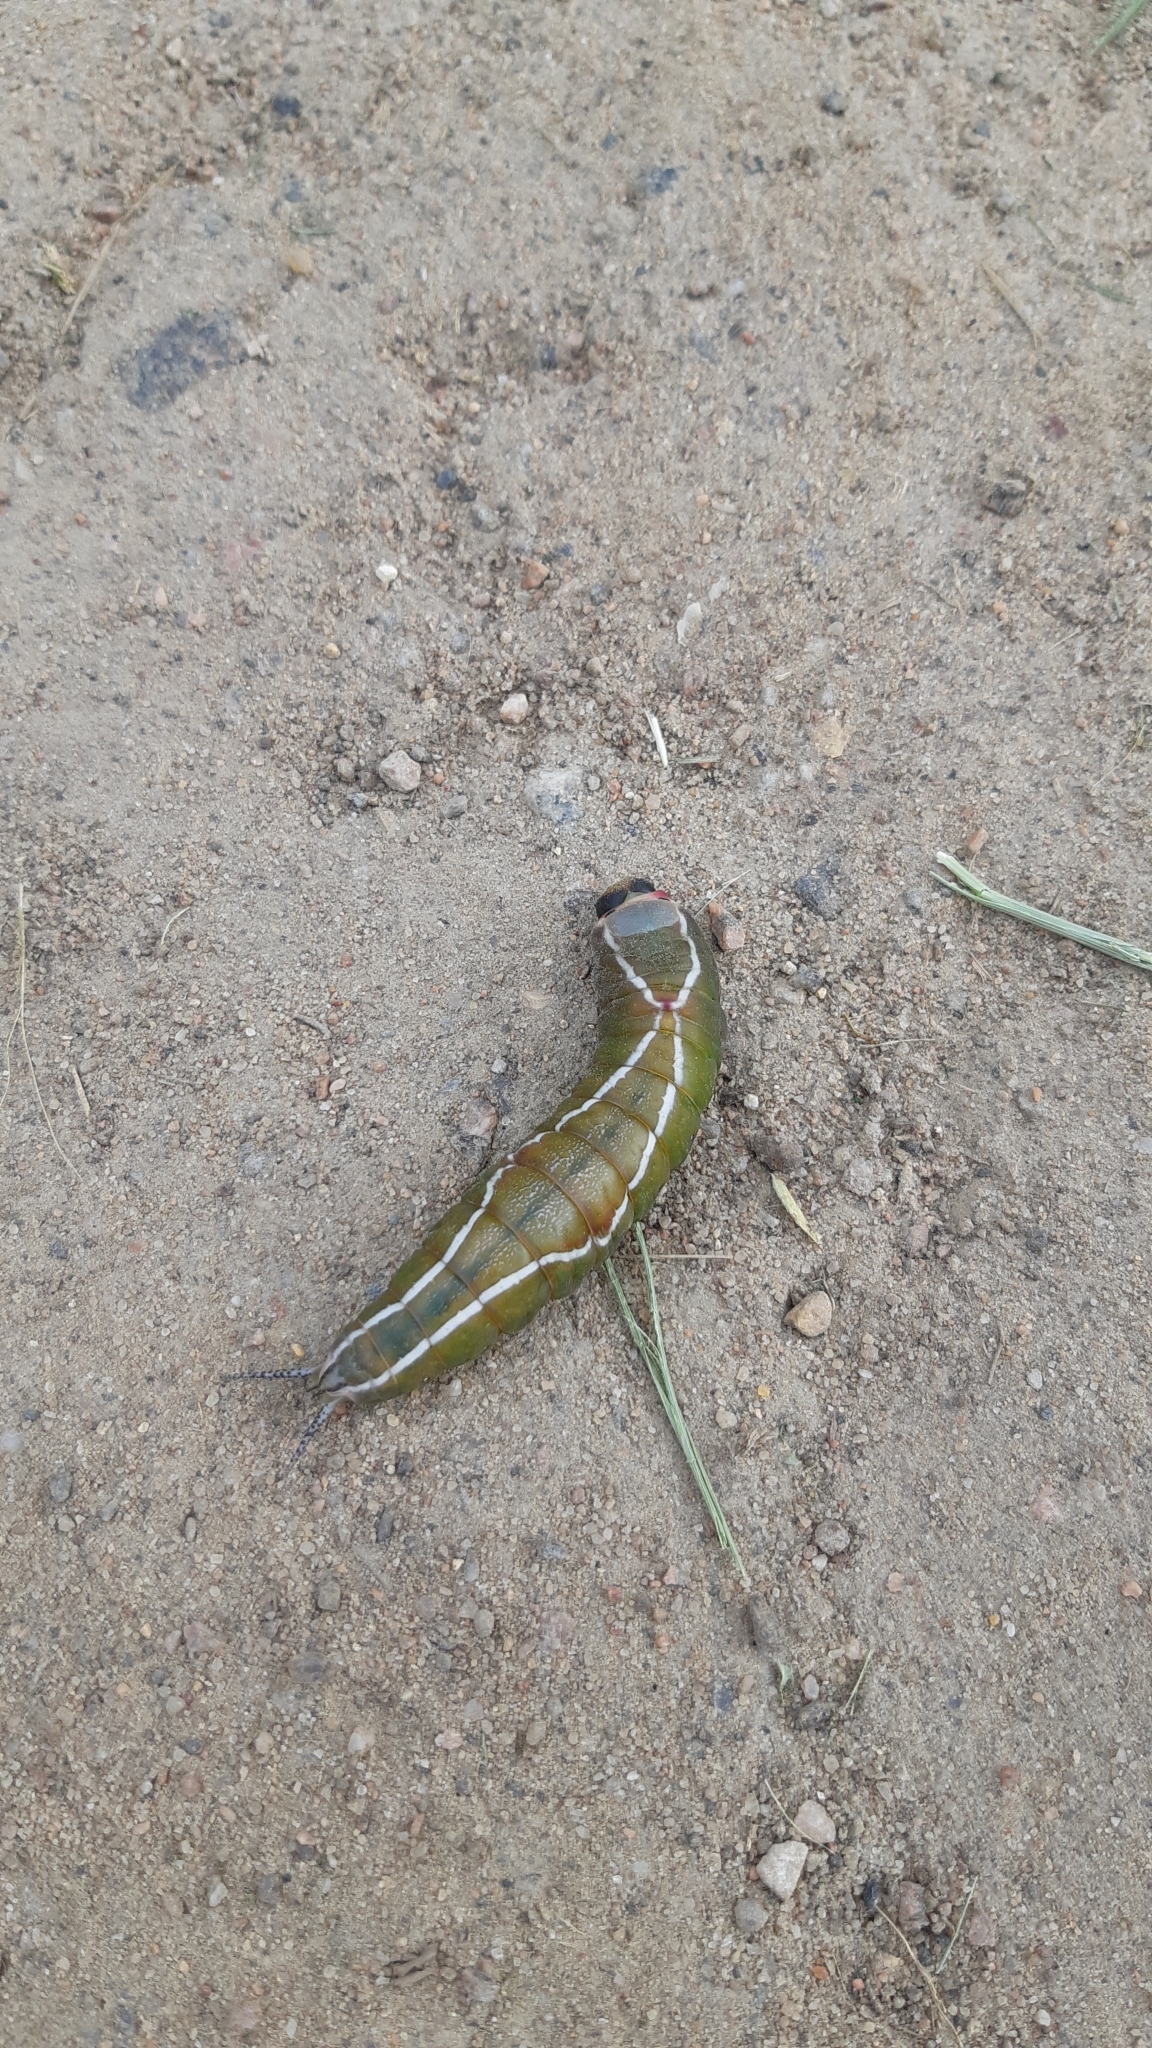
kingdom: Animalia
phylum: Arthropoda
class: Insecta
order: Lepidoptera
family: Notodontidae
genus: Cerura
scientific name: Cerura vinula
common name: Puss moth
